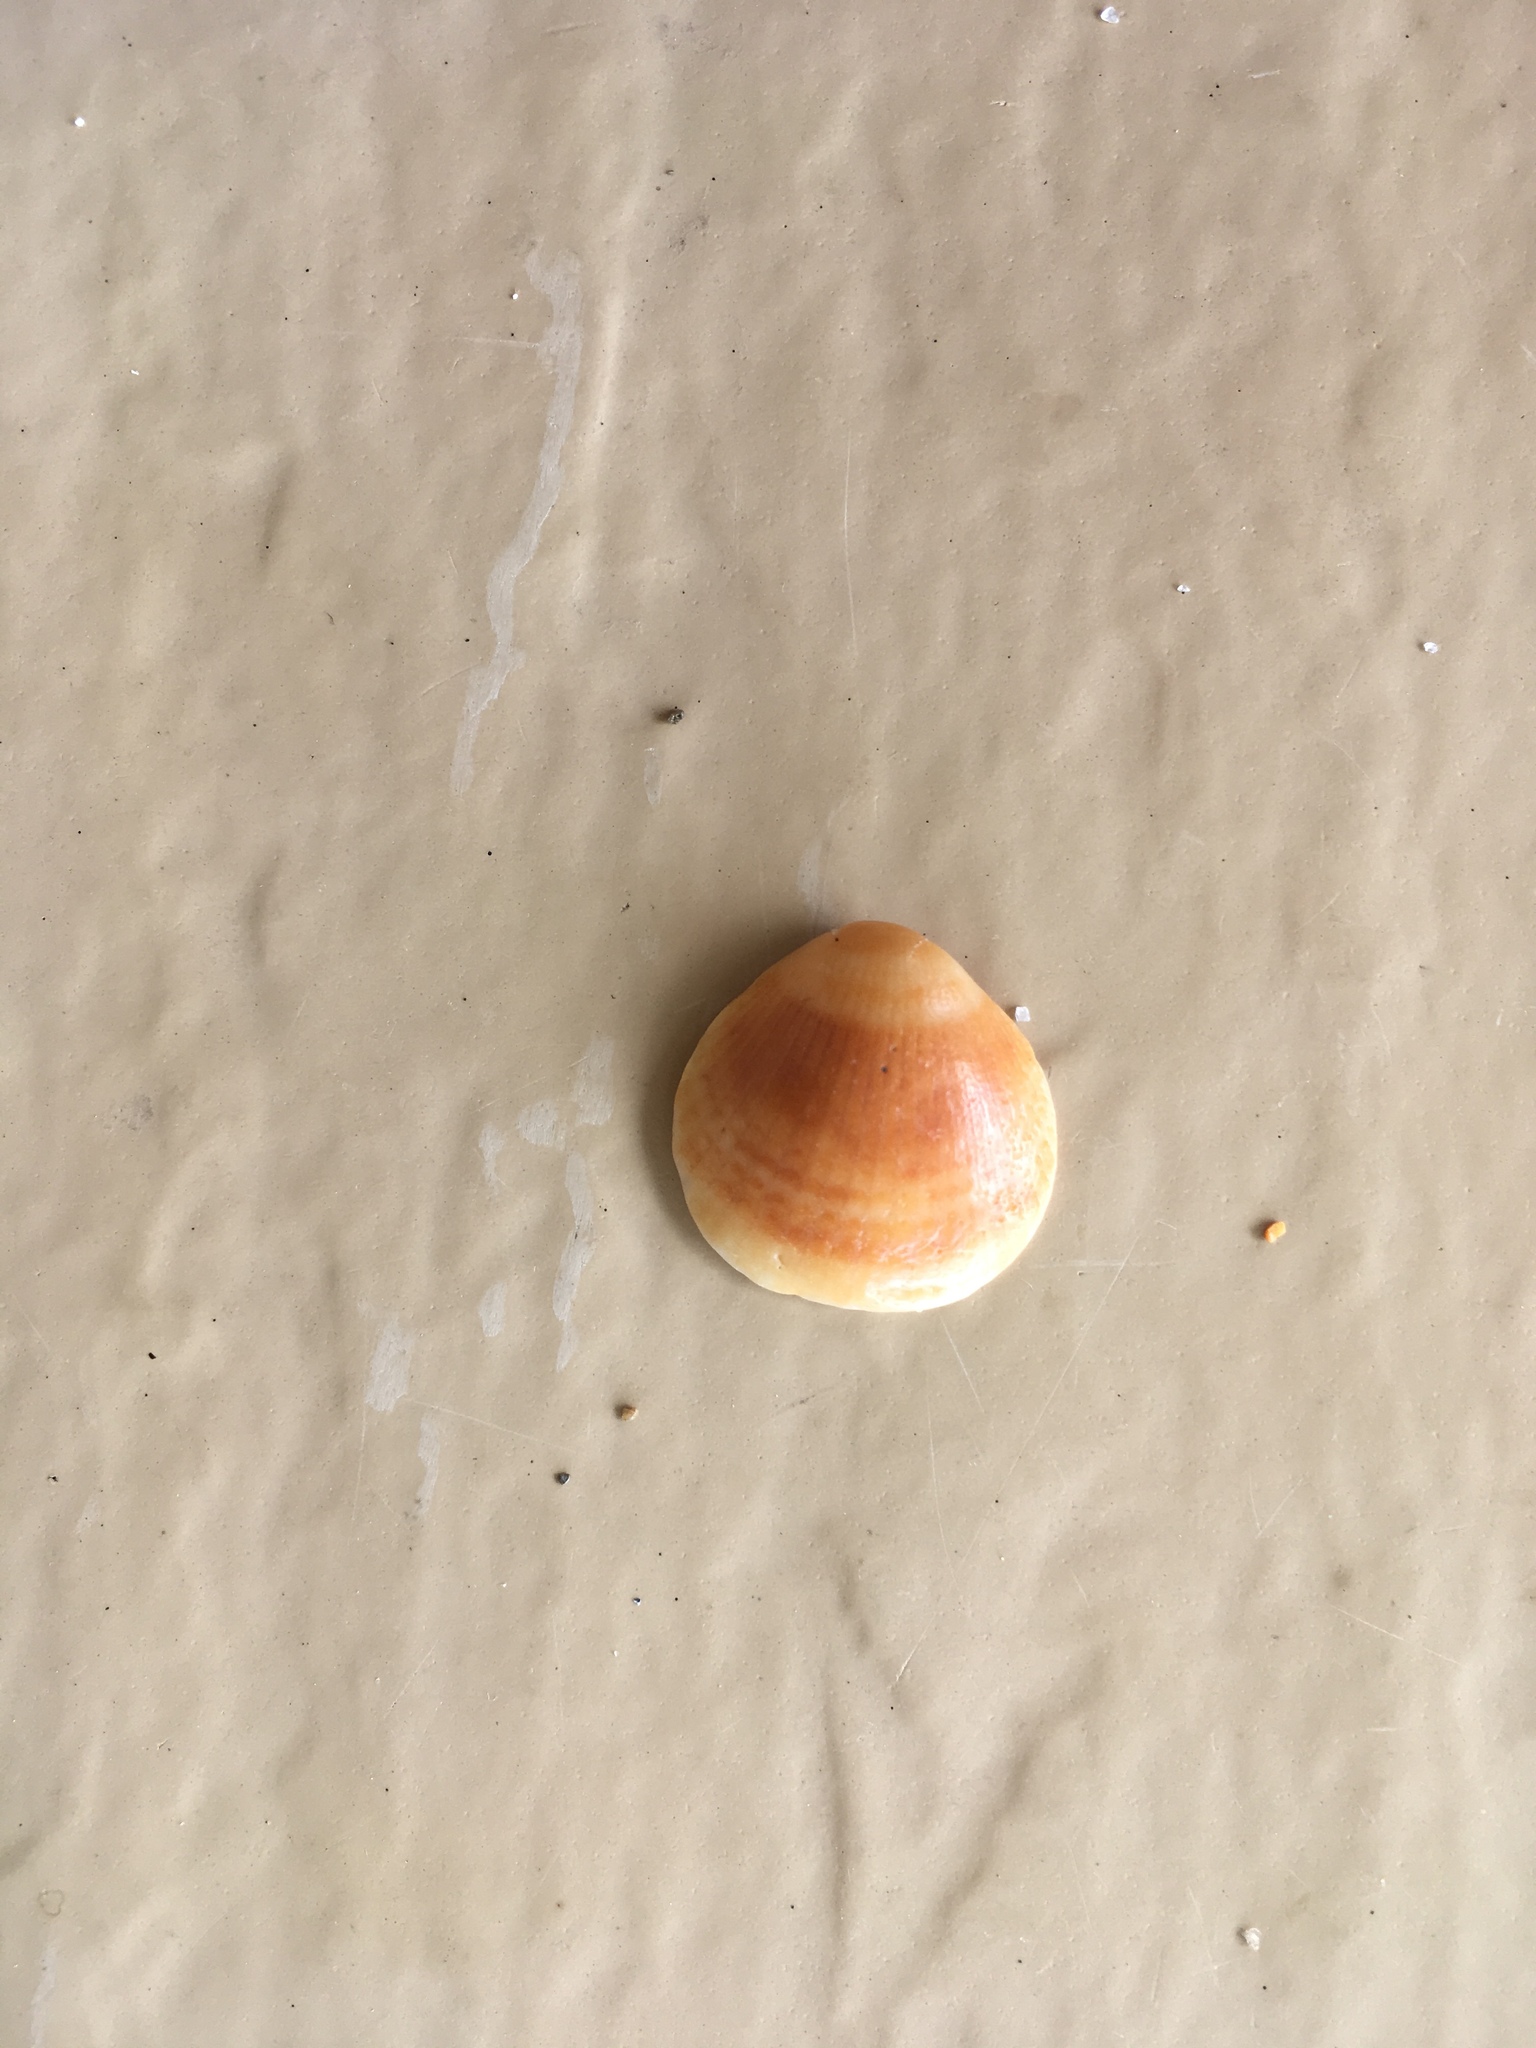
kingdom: Animalia
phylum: Mollusca
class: Bivalvia
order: Arcida
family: Glycymerididae
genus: Glycymeris
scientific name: Glycymeris spectralis
